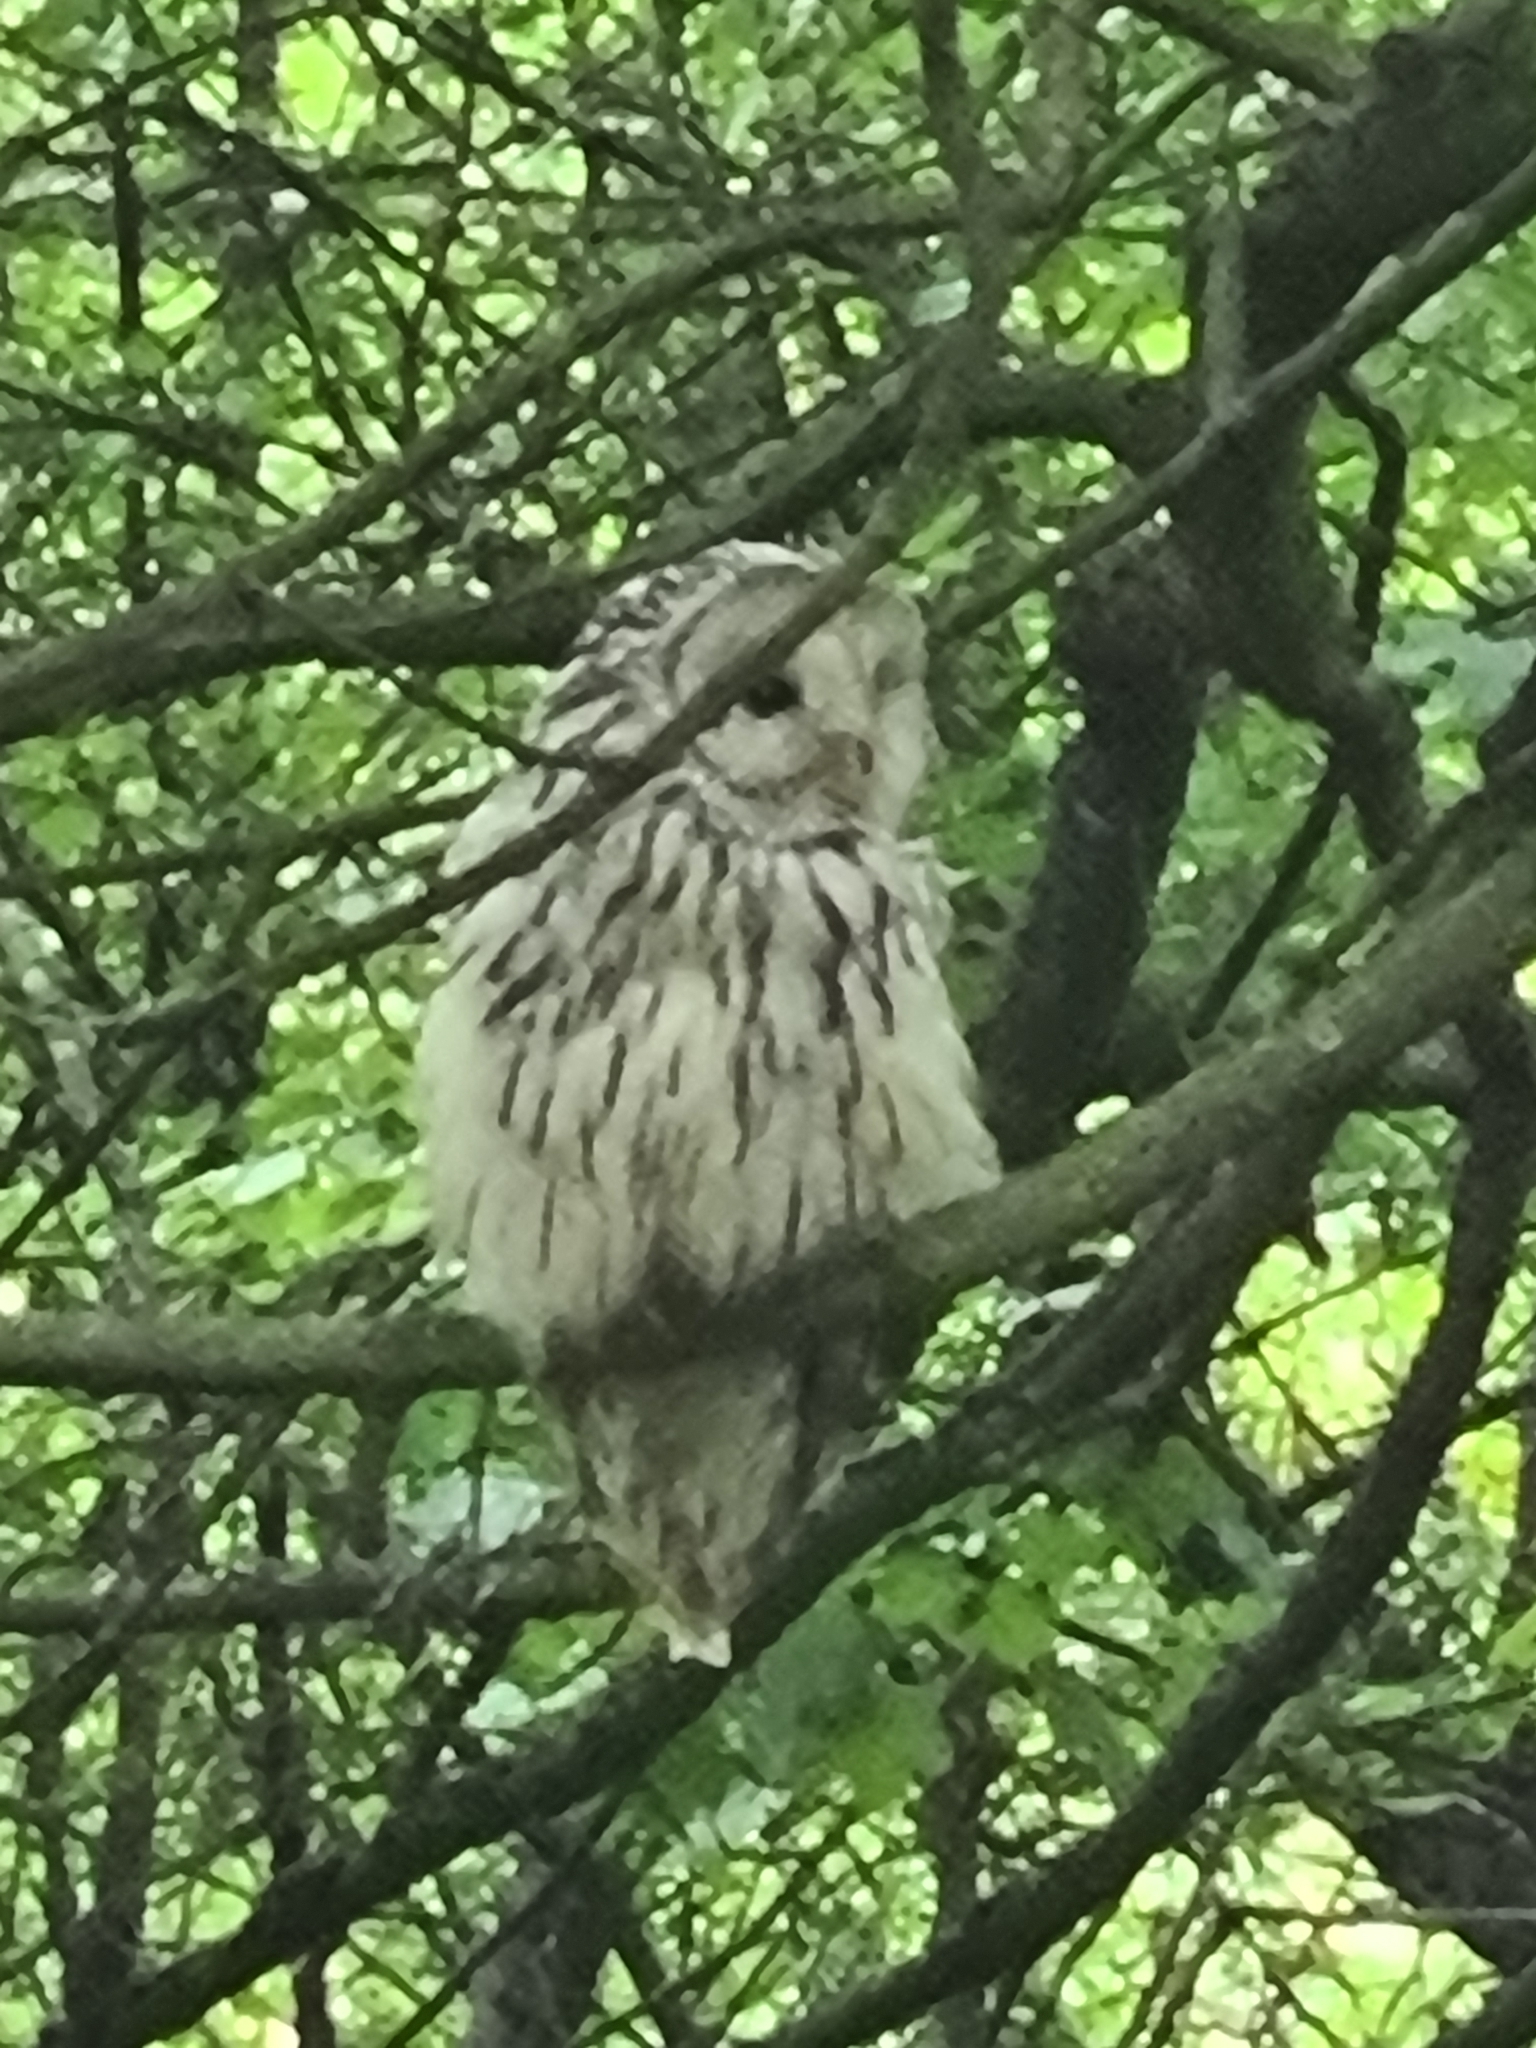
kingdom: Animalia
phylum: Chordata
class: Aves
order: Strigiformes
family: Strigidae
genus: Strix
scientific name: Strix uralensis
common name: Ural owl
